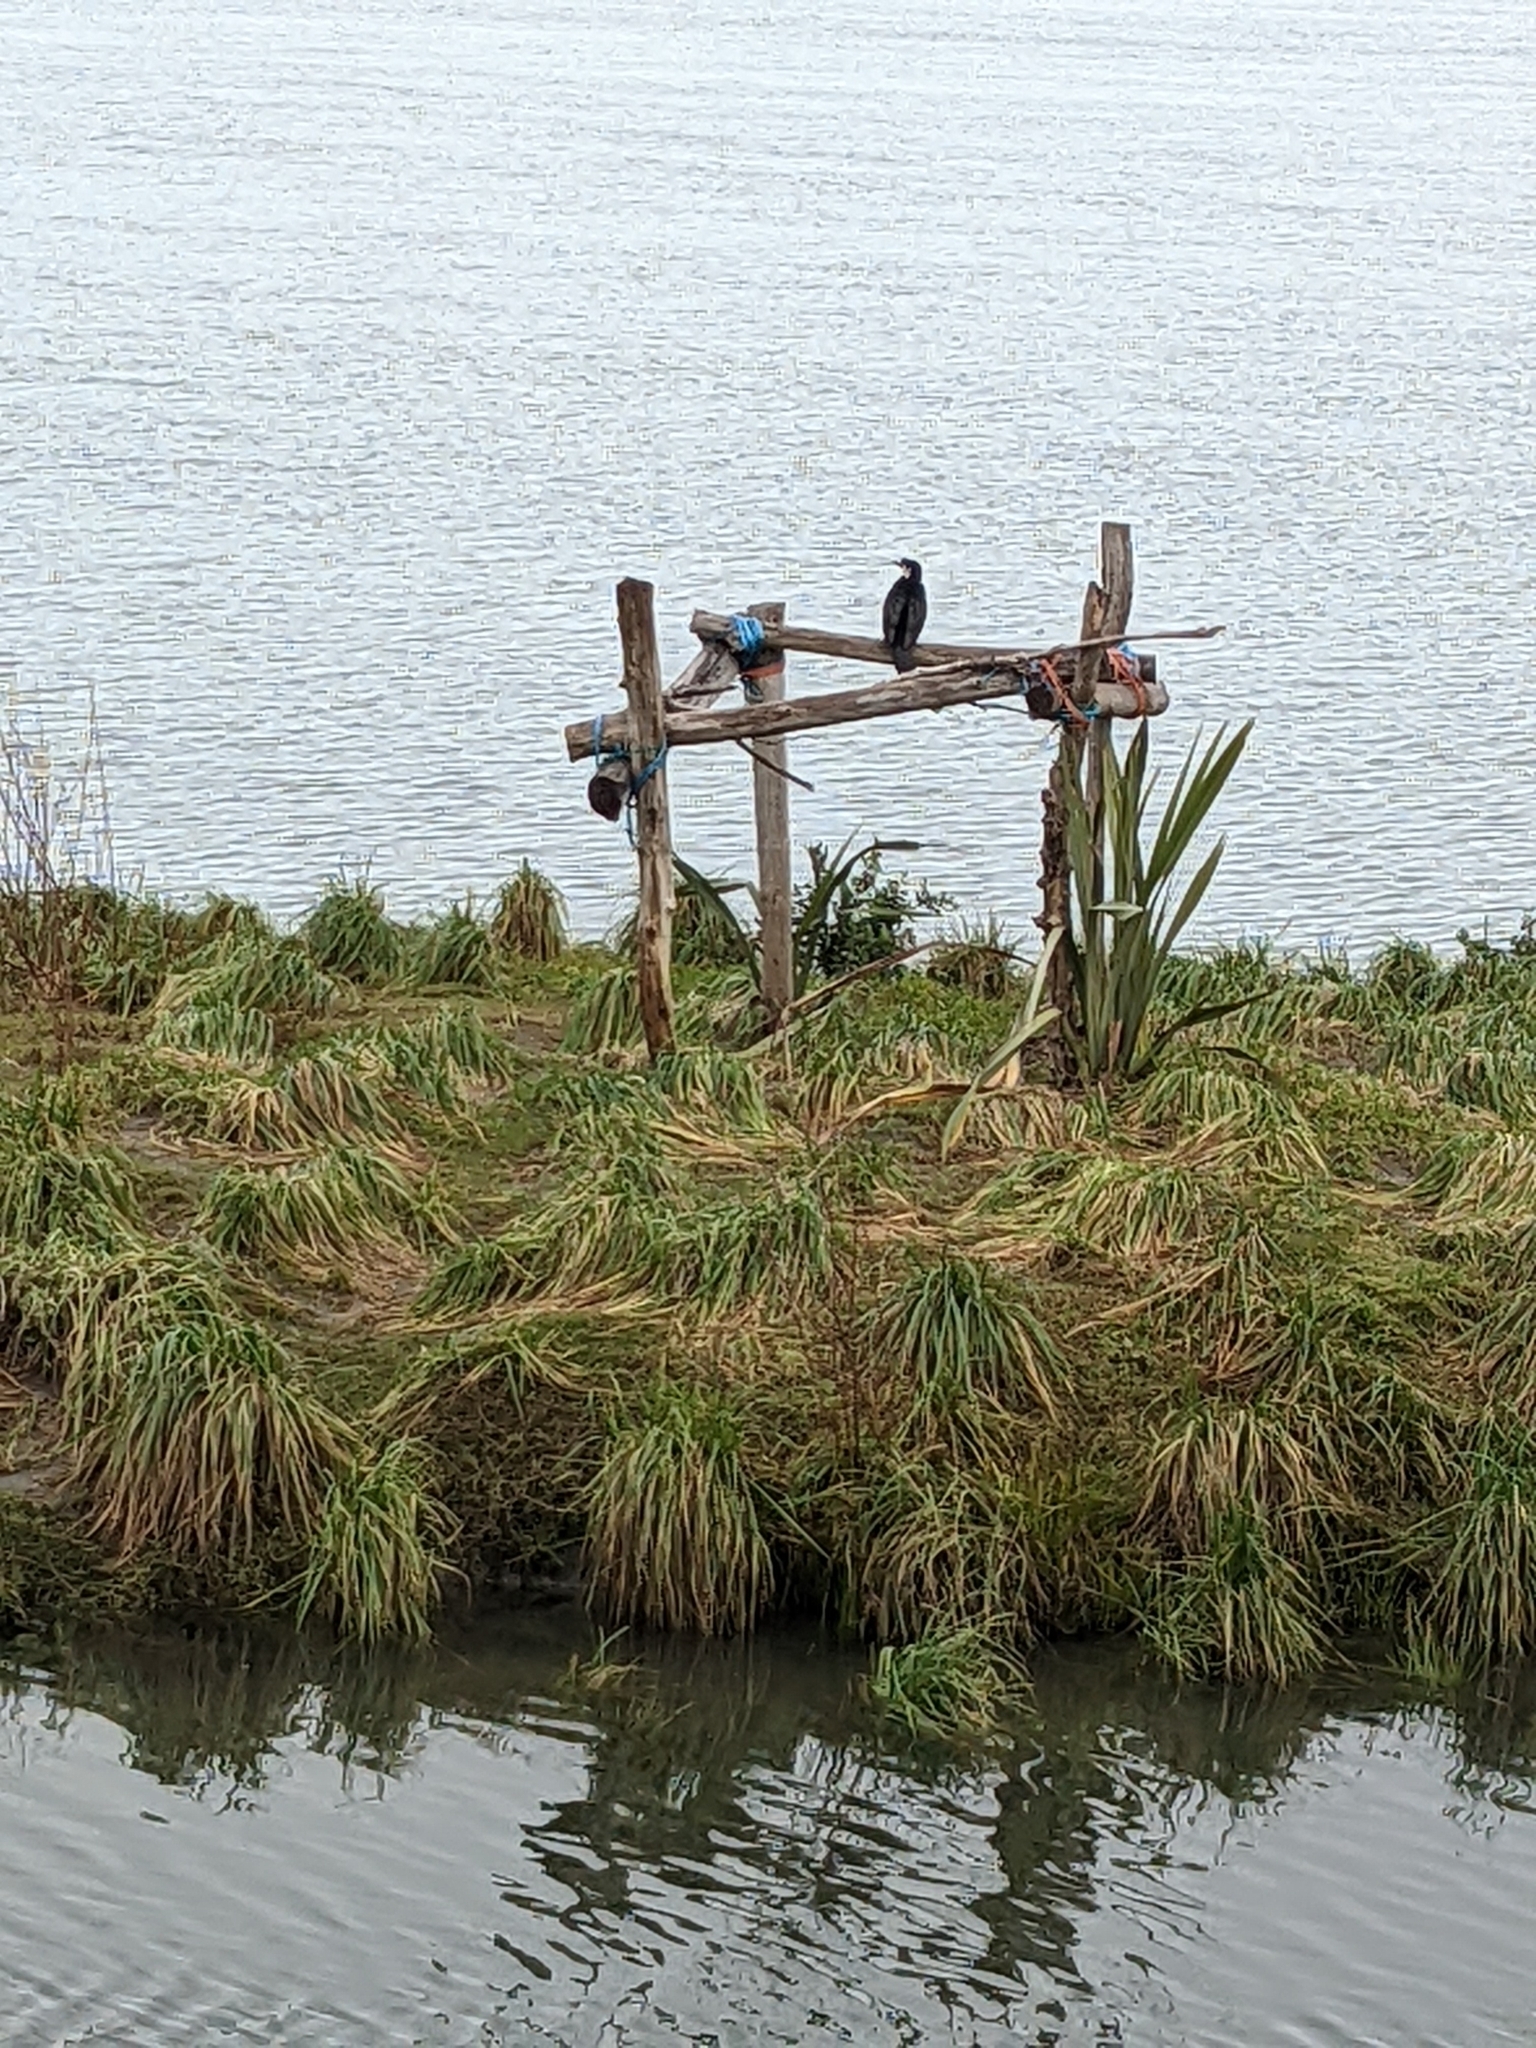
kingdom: Animalia
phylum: Chordata
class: Aves
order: Suliformes
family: Phalacrocoracidae
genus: Microcarbo
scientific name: Microcarbo melanoleucos
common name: Little pied cormorant
